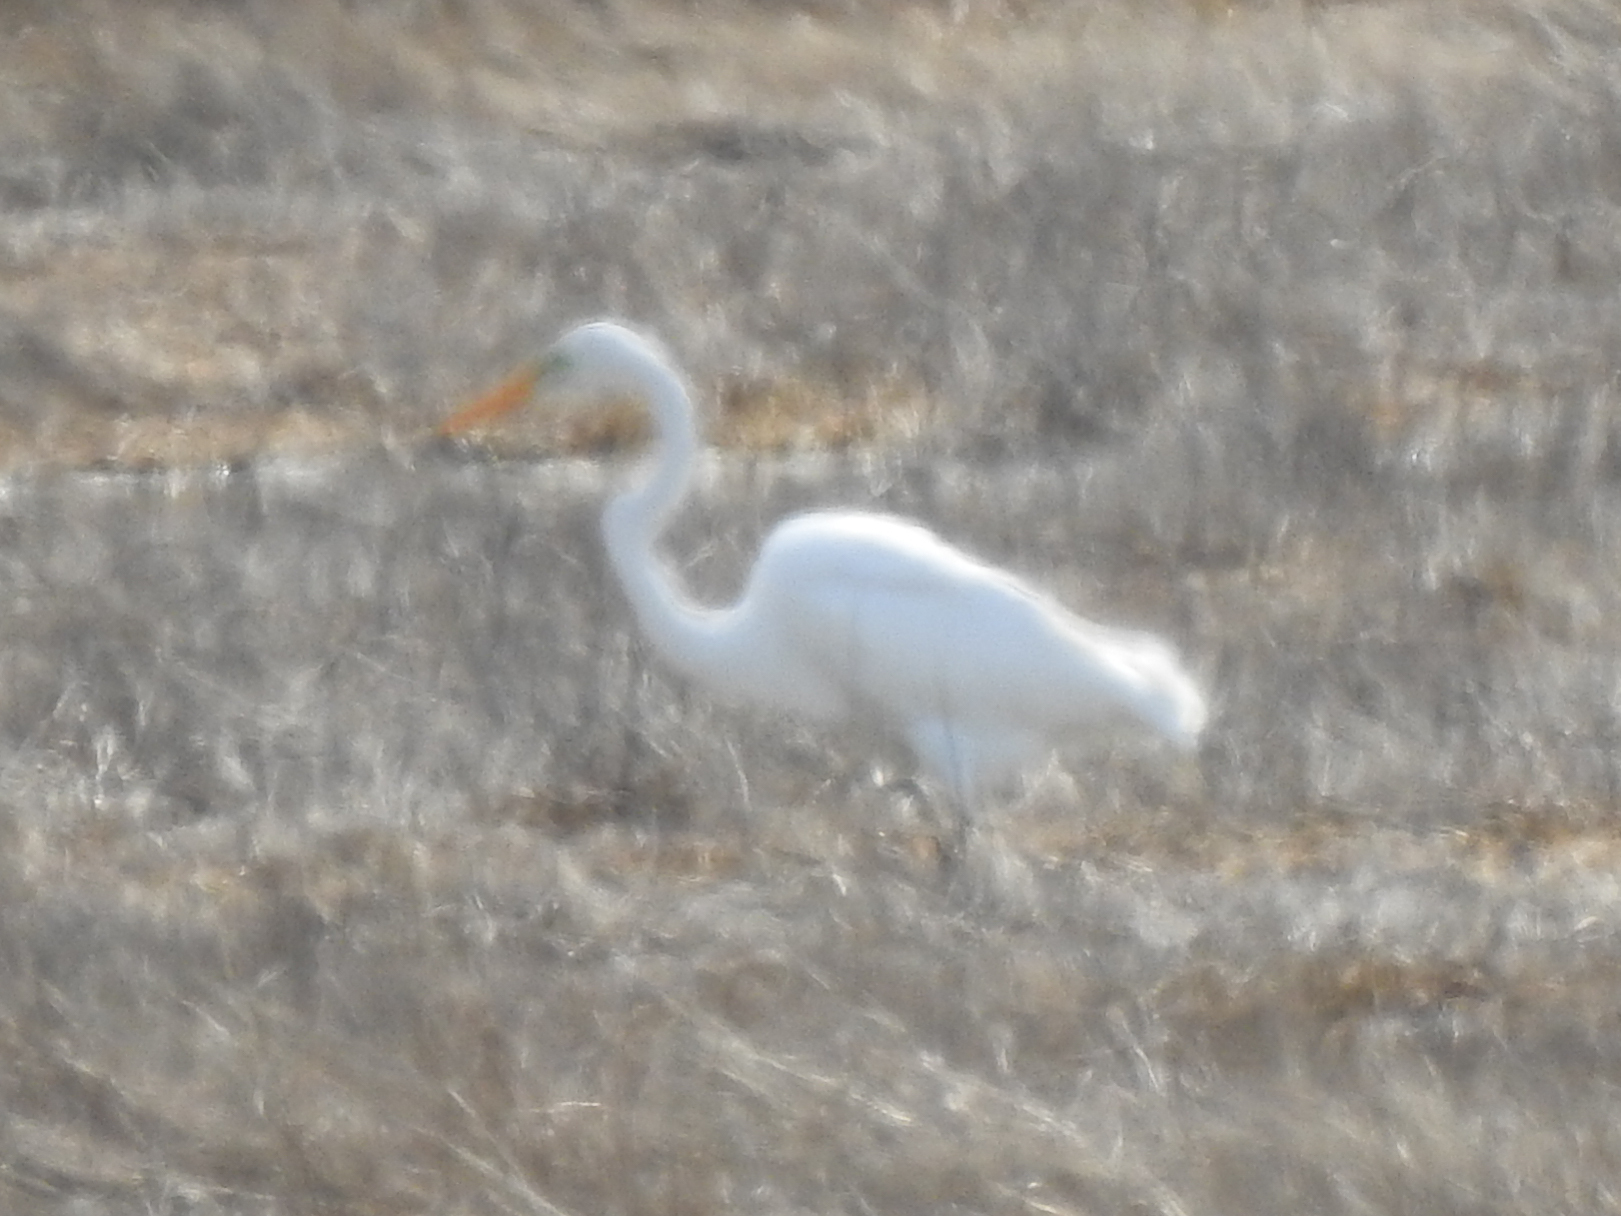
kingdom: Animalia
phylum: Chordata
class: Aves
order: Pelecaniformes
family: Ardeidae
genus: Ardea
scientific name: Ardea alba
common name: Great egret
